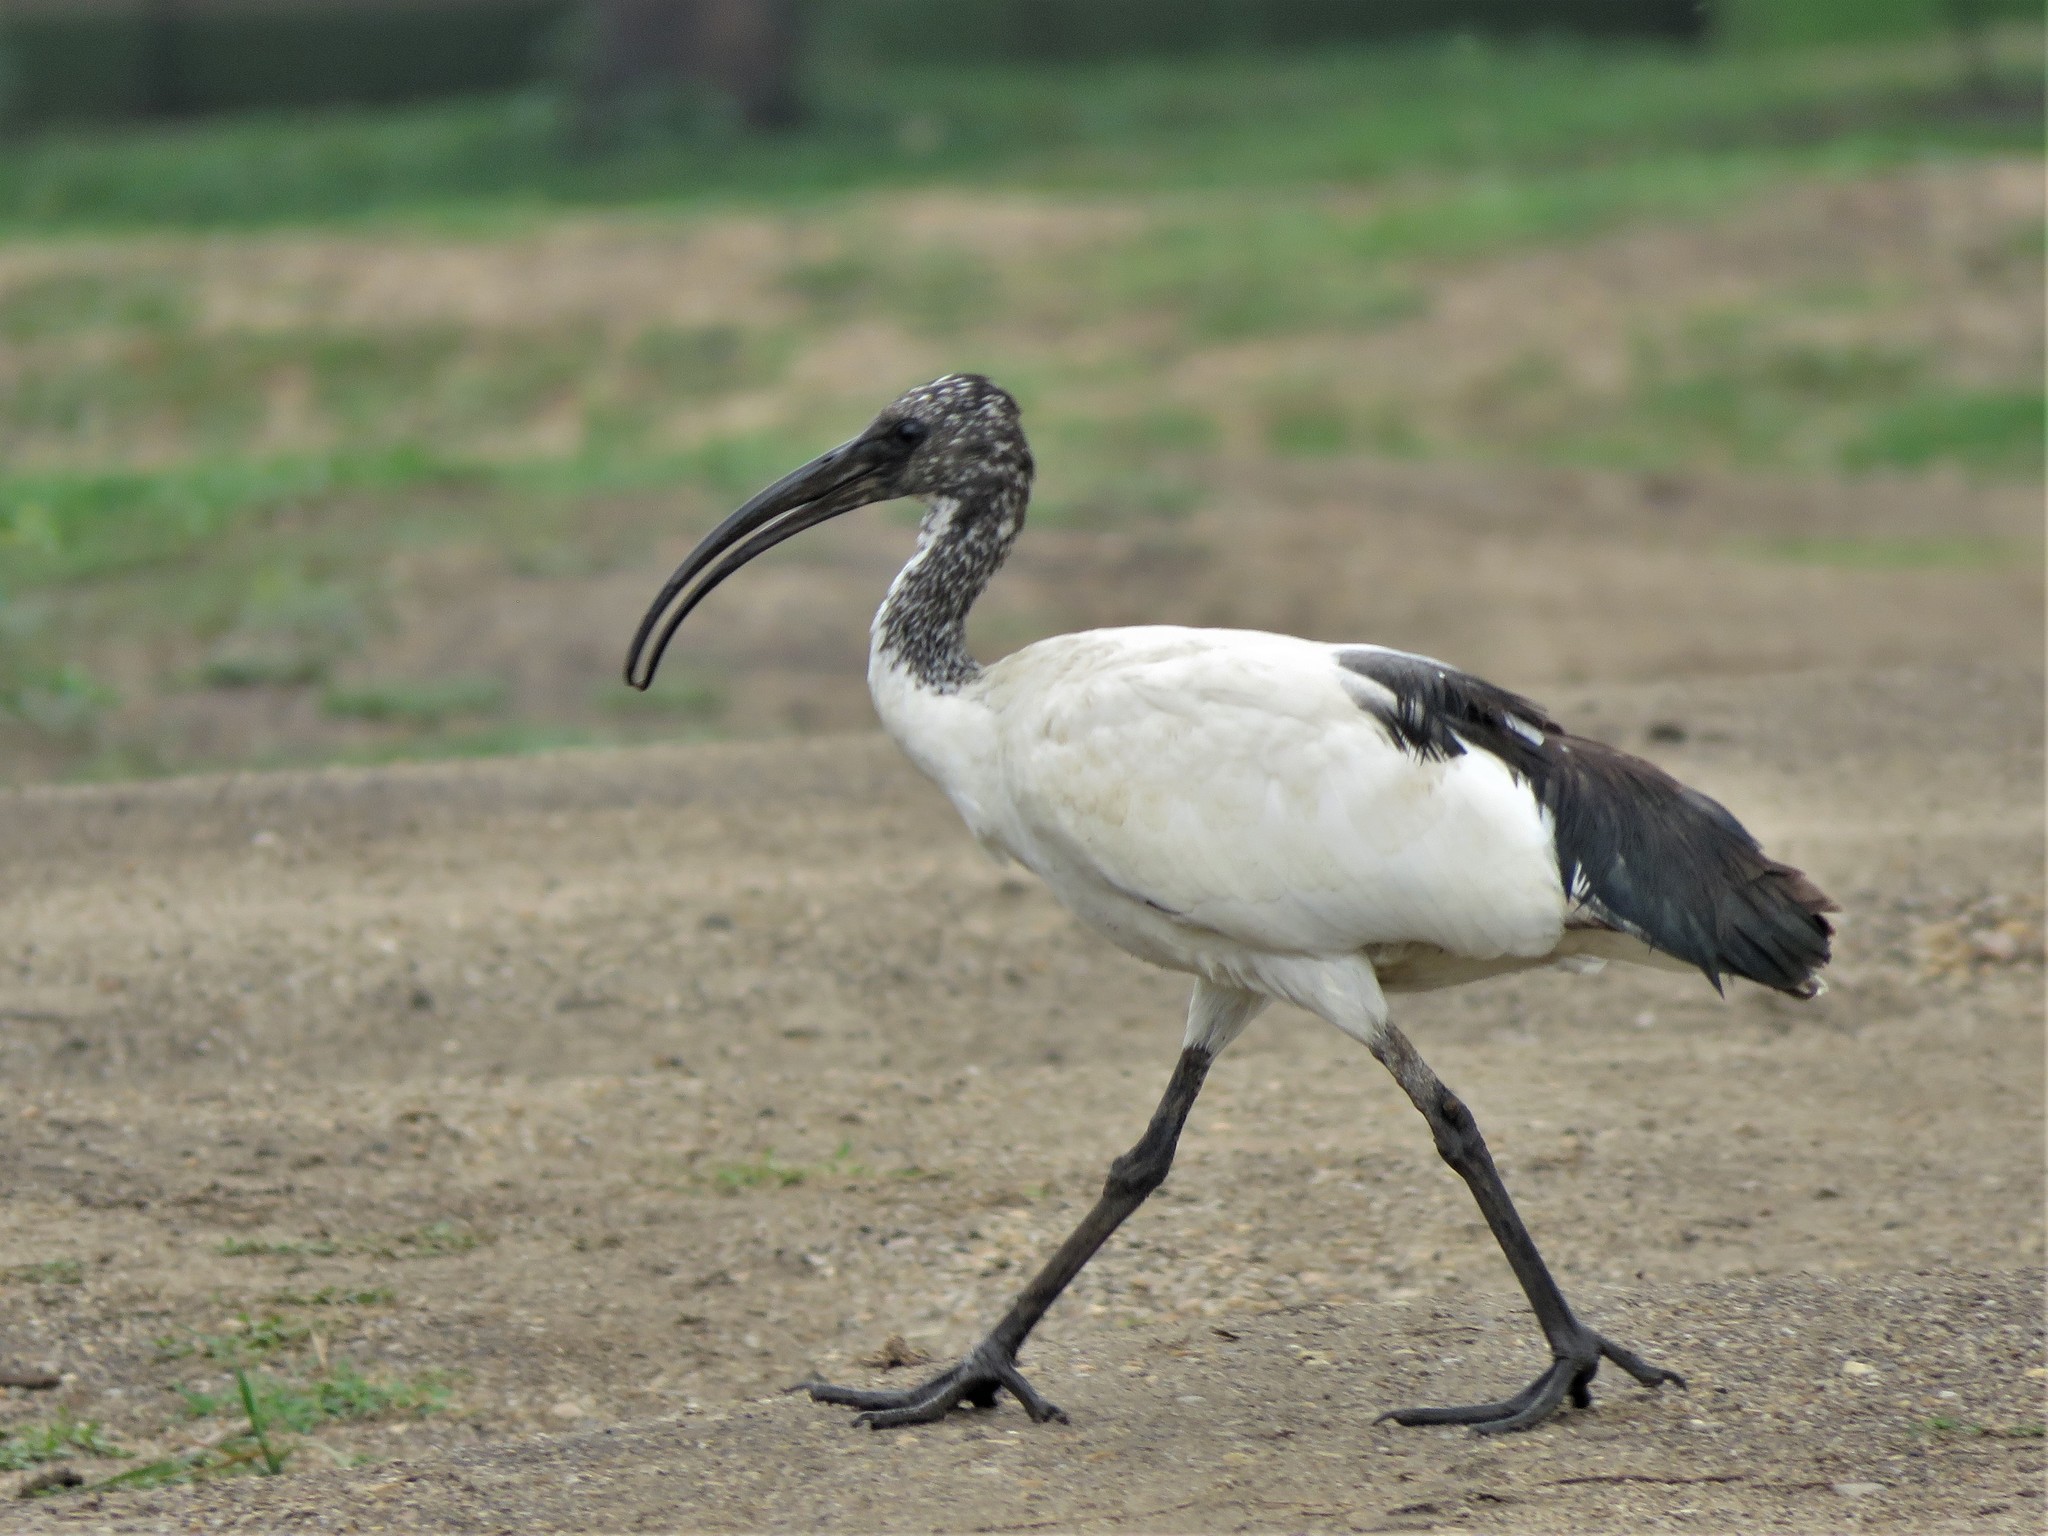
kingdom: Animalia
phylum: Chordata
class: Aves
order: Pelecaniformes
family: Threskiornithidae
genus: Threskiornis
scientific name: Threskiornis aethiopicus
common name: Sacred ibis
